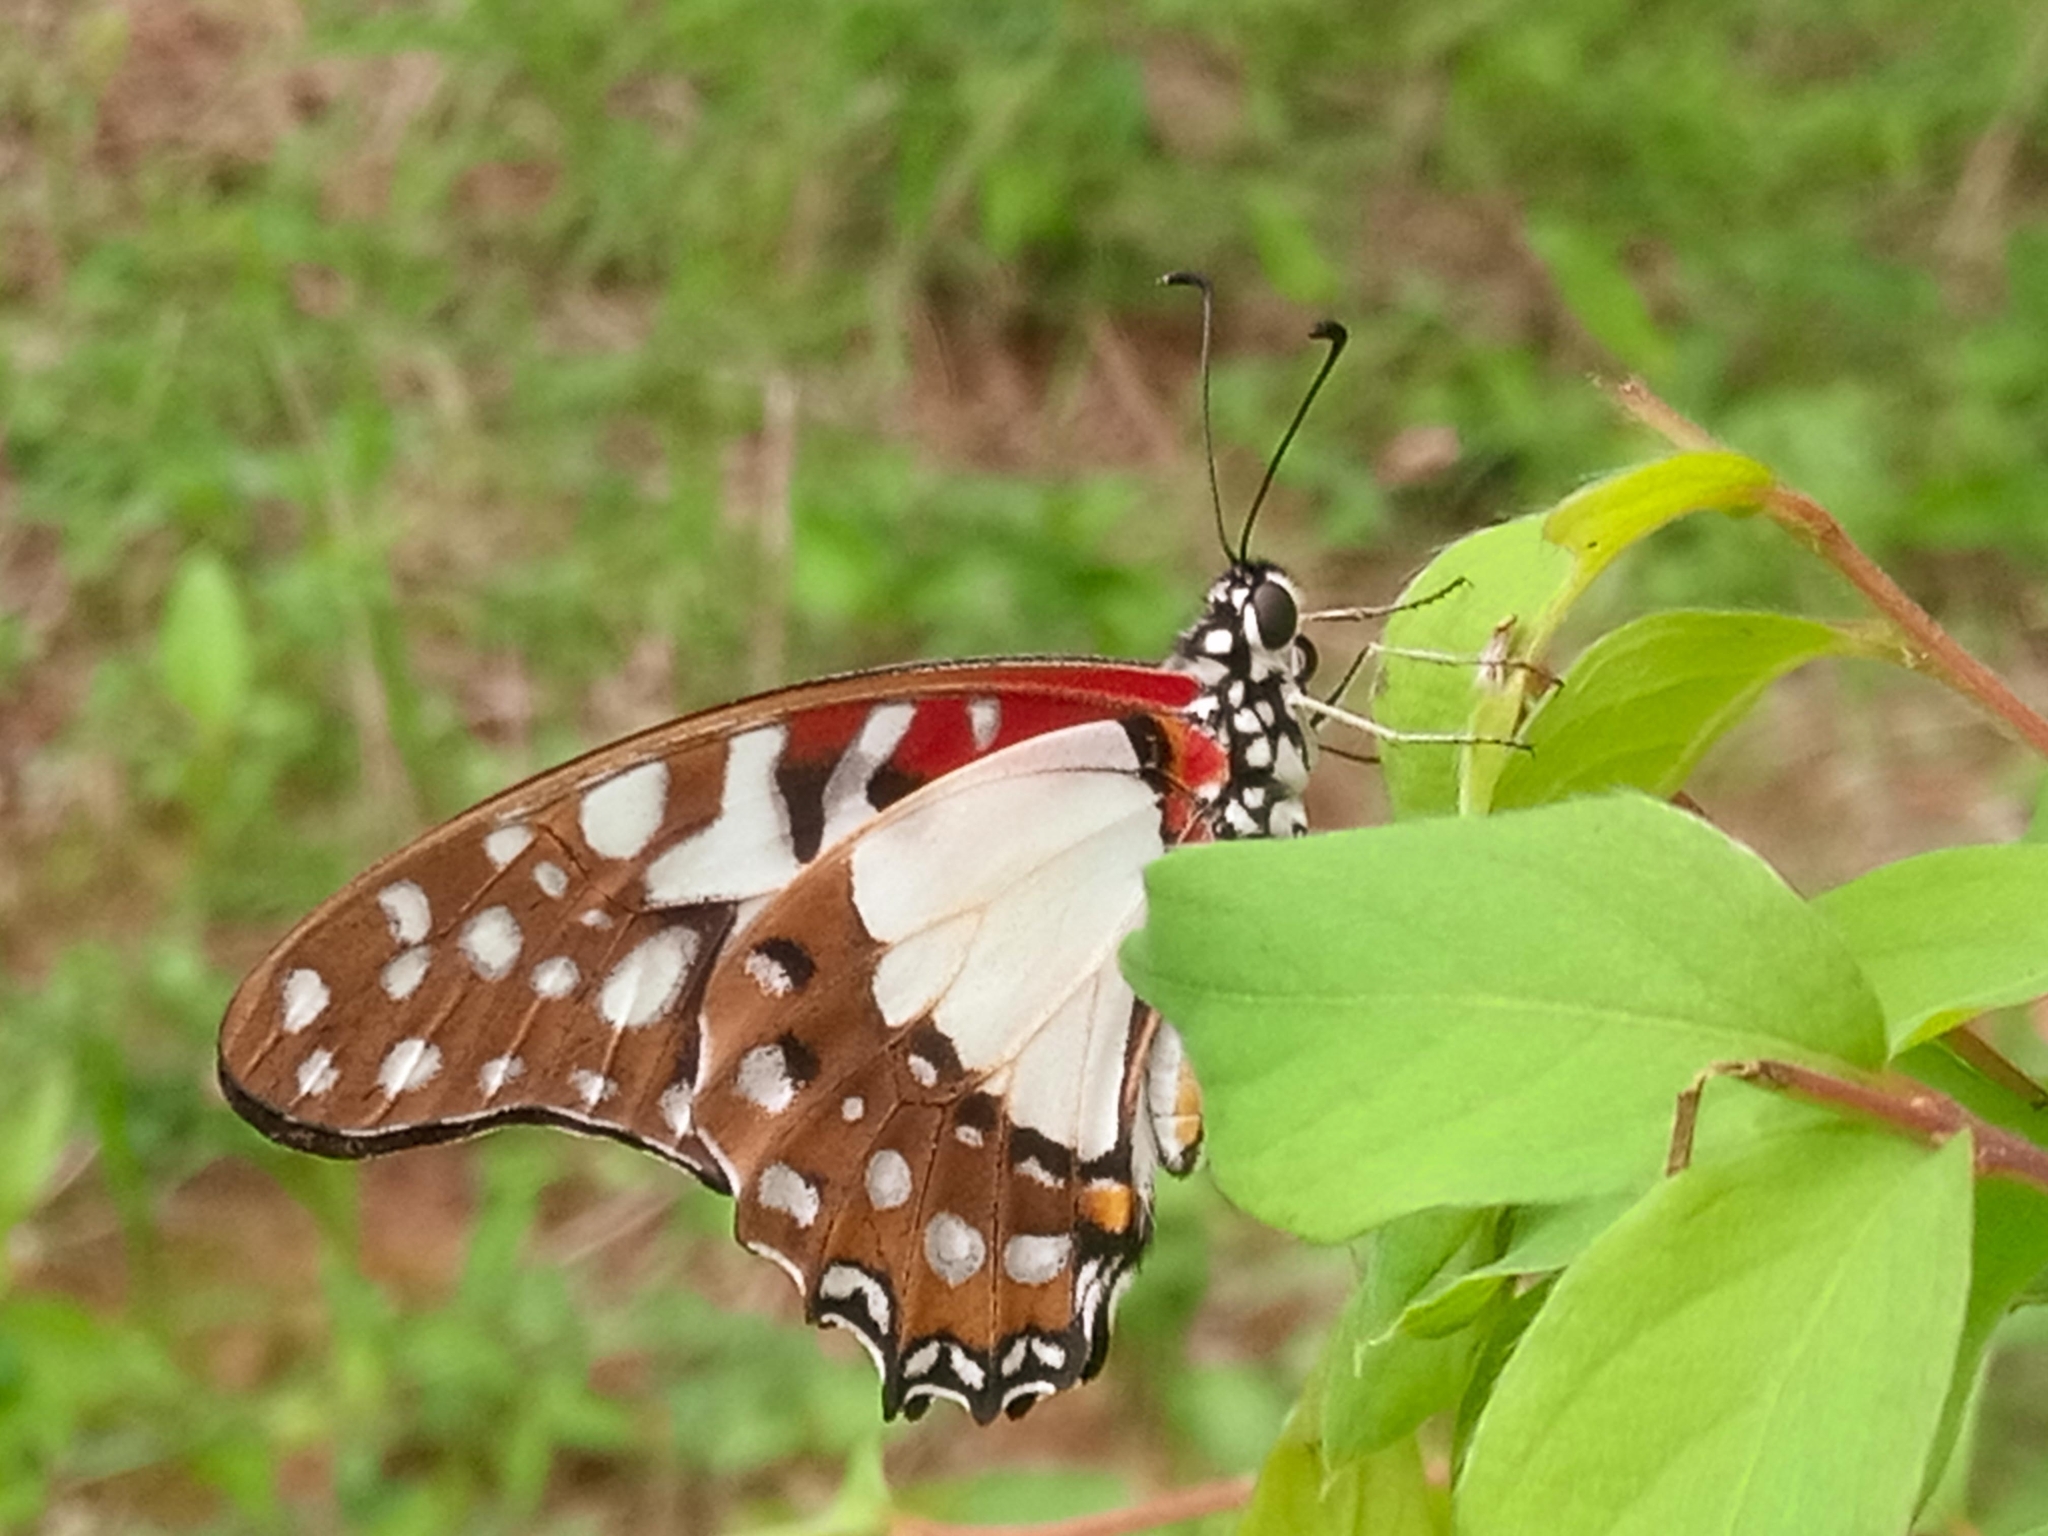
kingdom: Animalia
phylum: Arthropoda
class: Insecta
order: Lepidoptera
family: Papilionidae
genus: Graphium
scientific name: Graphium angolanus
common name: Angola white-lady swordtail
